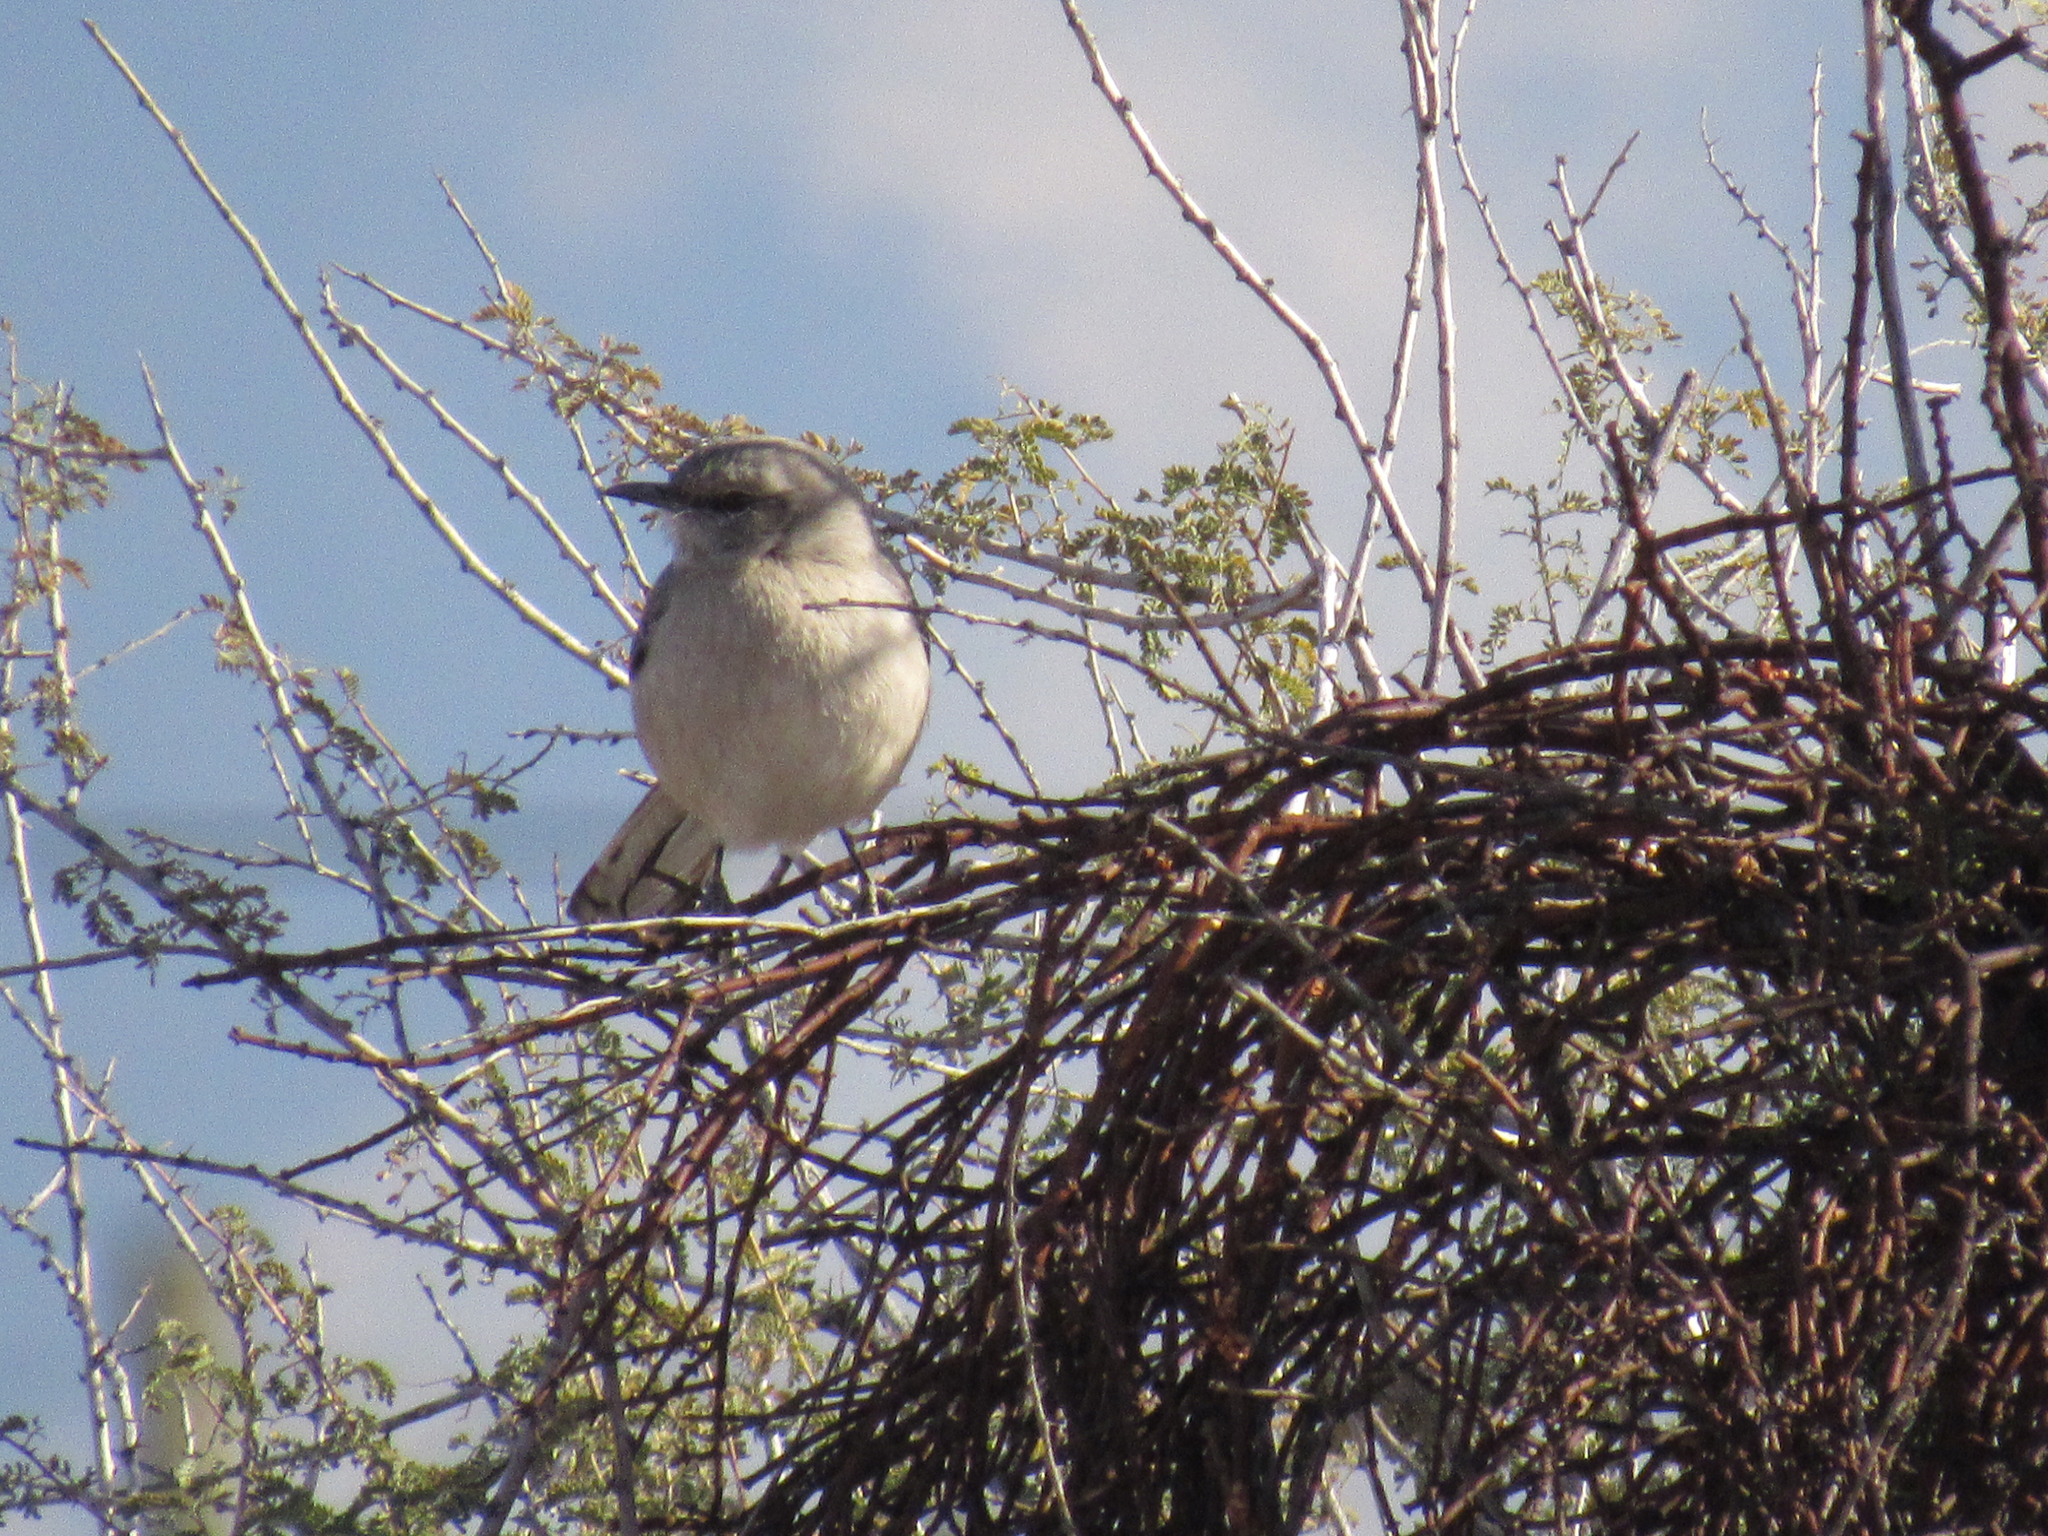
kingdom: Animalia
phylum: Chordata
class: Aves
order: Passeriformes
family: Mimidae
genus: Mimus
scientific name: Mimus polyglottos
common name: Northern mockingbird
